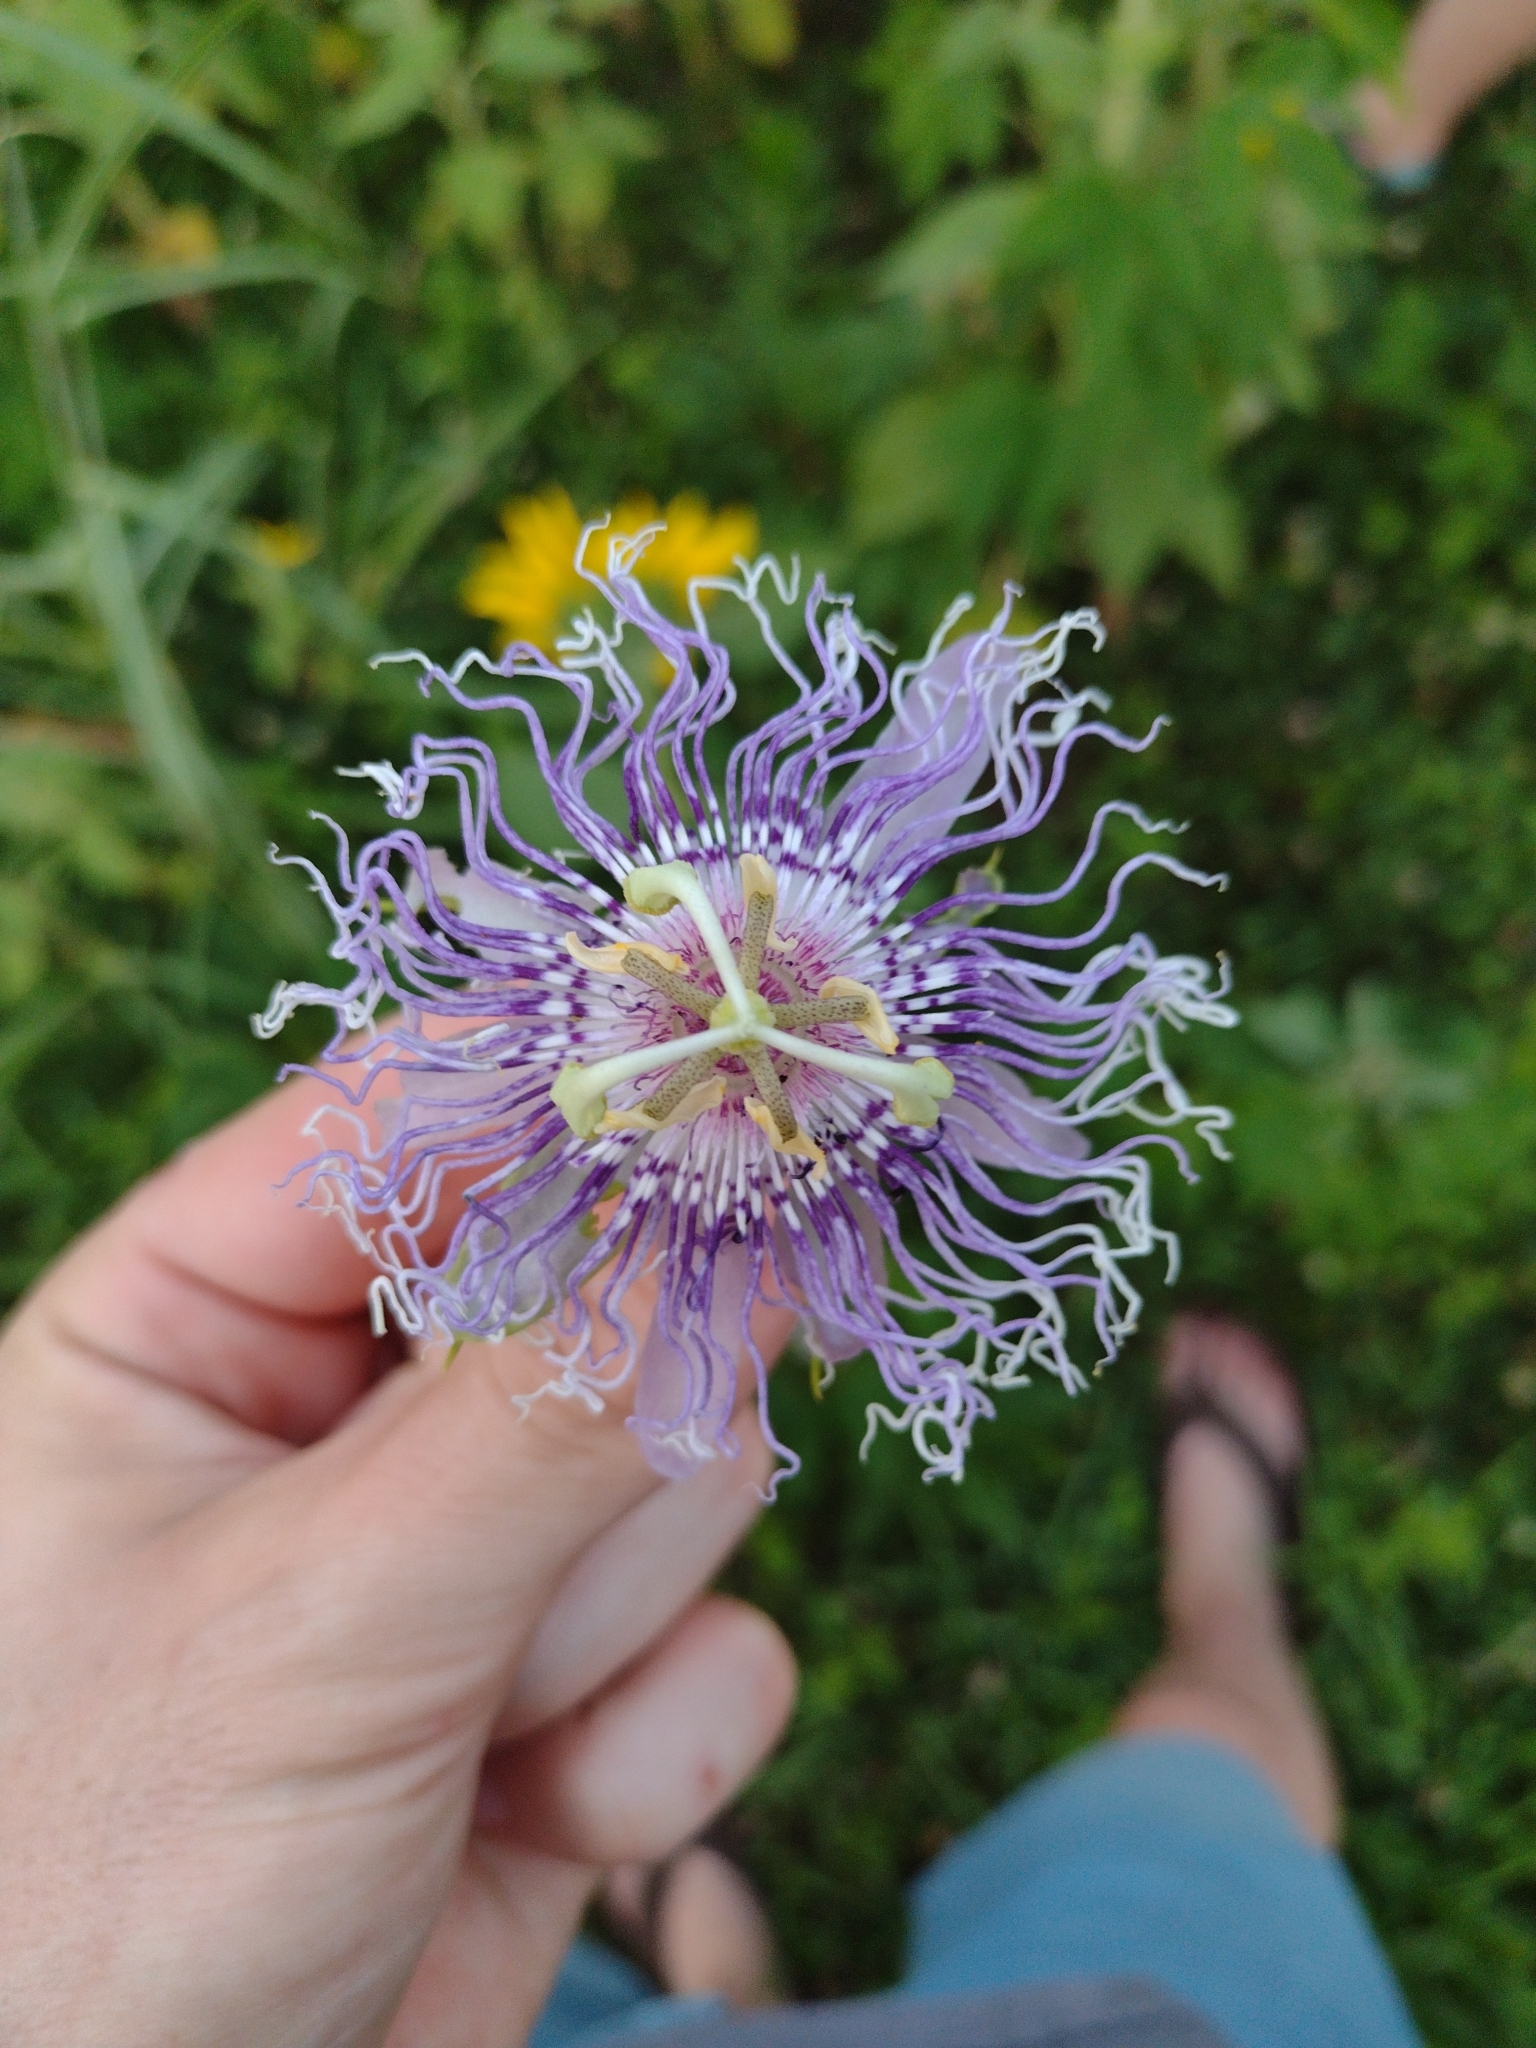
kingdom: Plantae
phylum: Tracheophyta
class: Magnoliopsida
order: Malpighiales
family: Passifloraceae
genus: Passiflora
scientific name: Passiflora incarnata
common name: Apricot-vine
